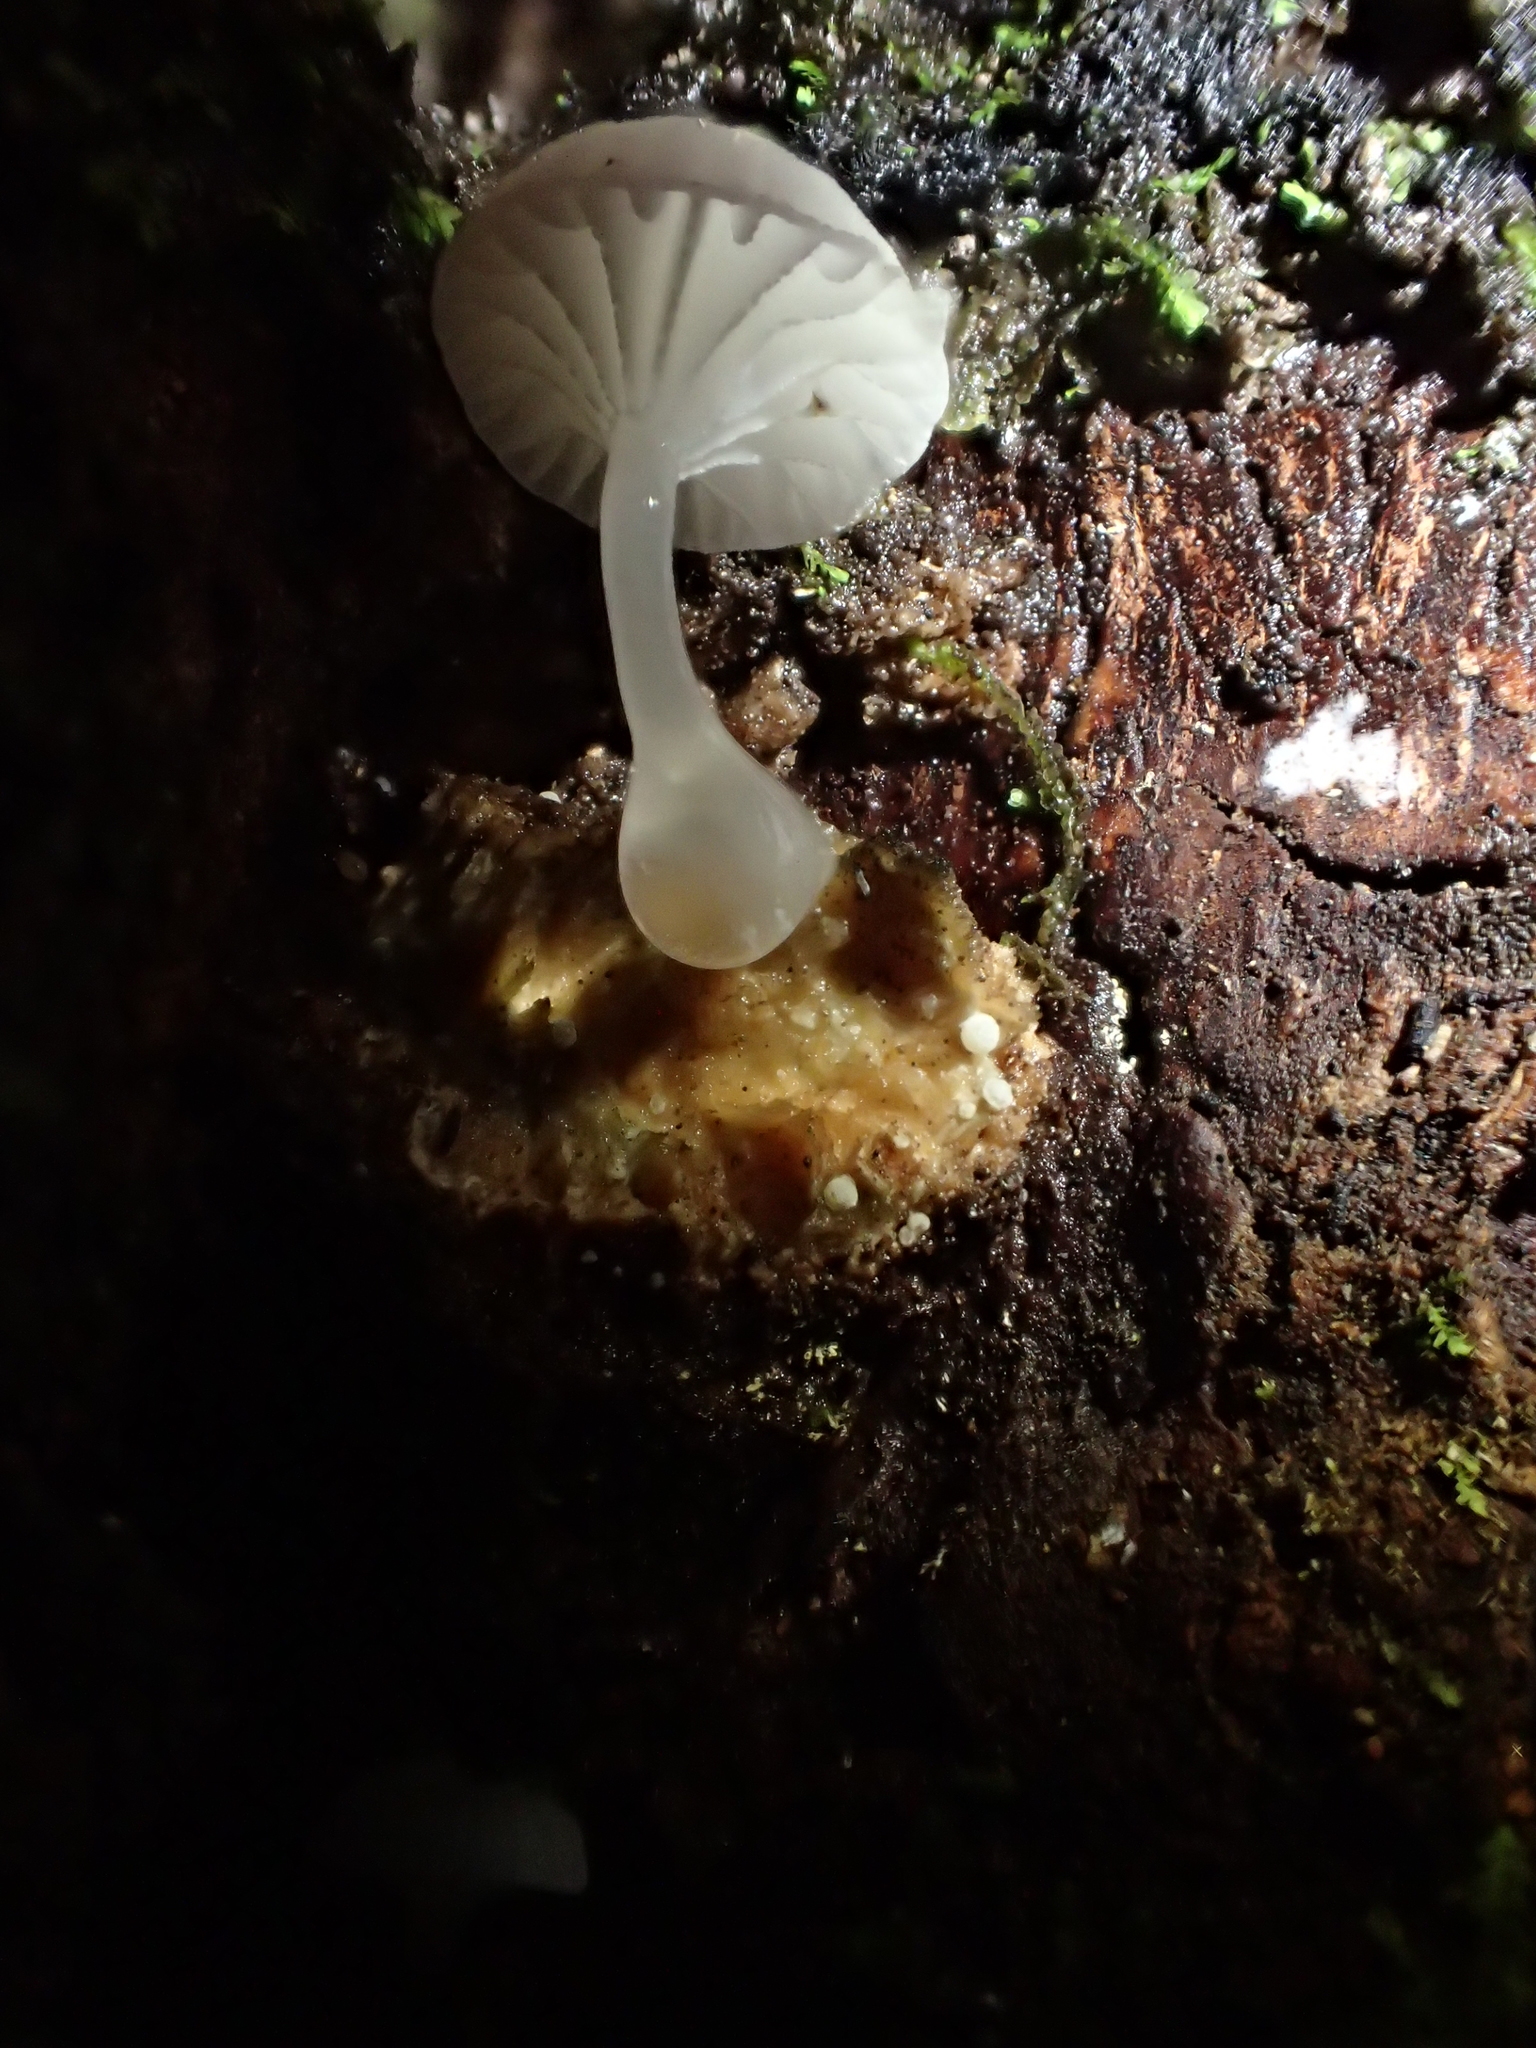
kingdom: Fungi
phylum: Basidiomycota
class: Agaricomycetes
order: Agaricales
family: Mycenaceae
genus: Roridomyces
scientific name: Roridomyces austrororidus
